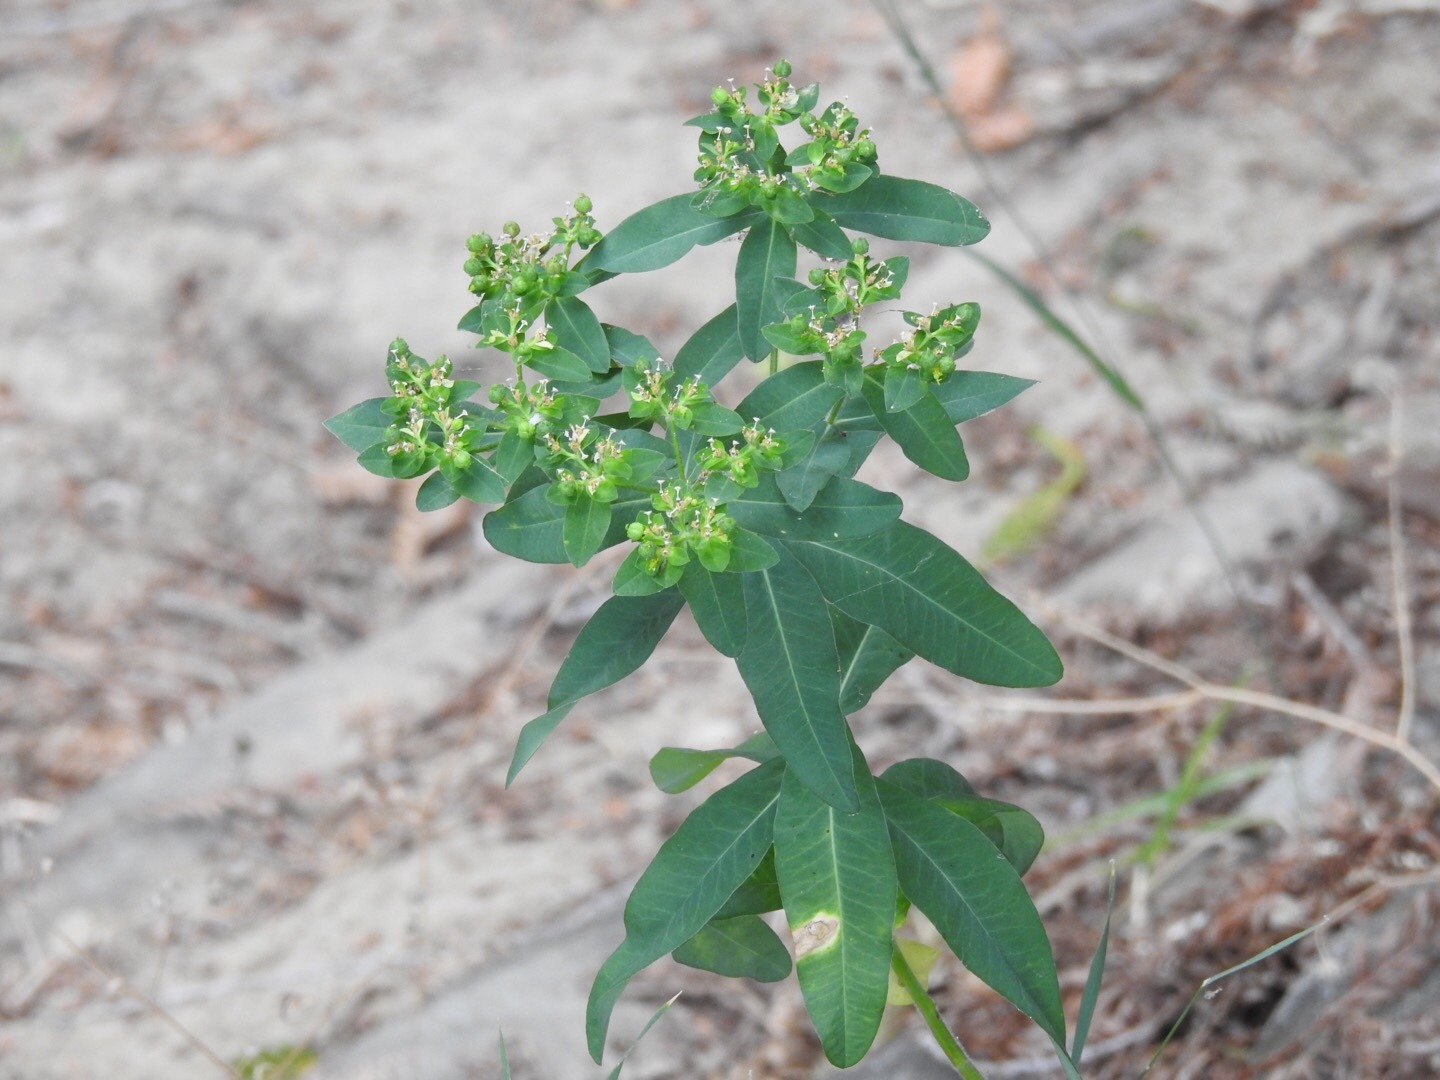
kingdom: Plantae
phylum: Tracheophyta
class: Magnoliopsida
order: Malpighiales
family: Euphorbiaceae
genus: Euphorbia
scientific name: Euphorbia oblongata
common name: Balkan spurge
